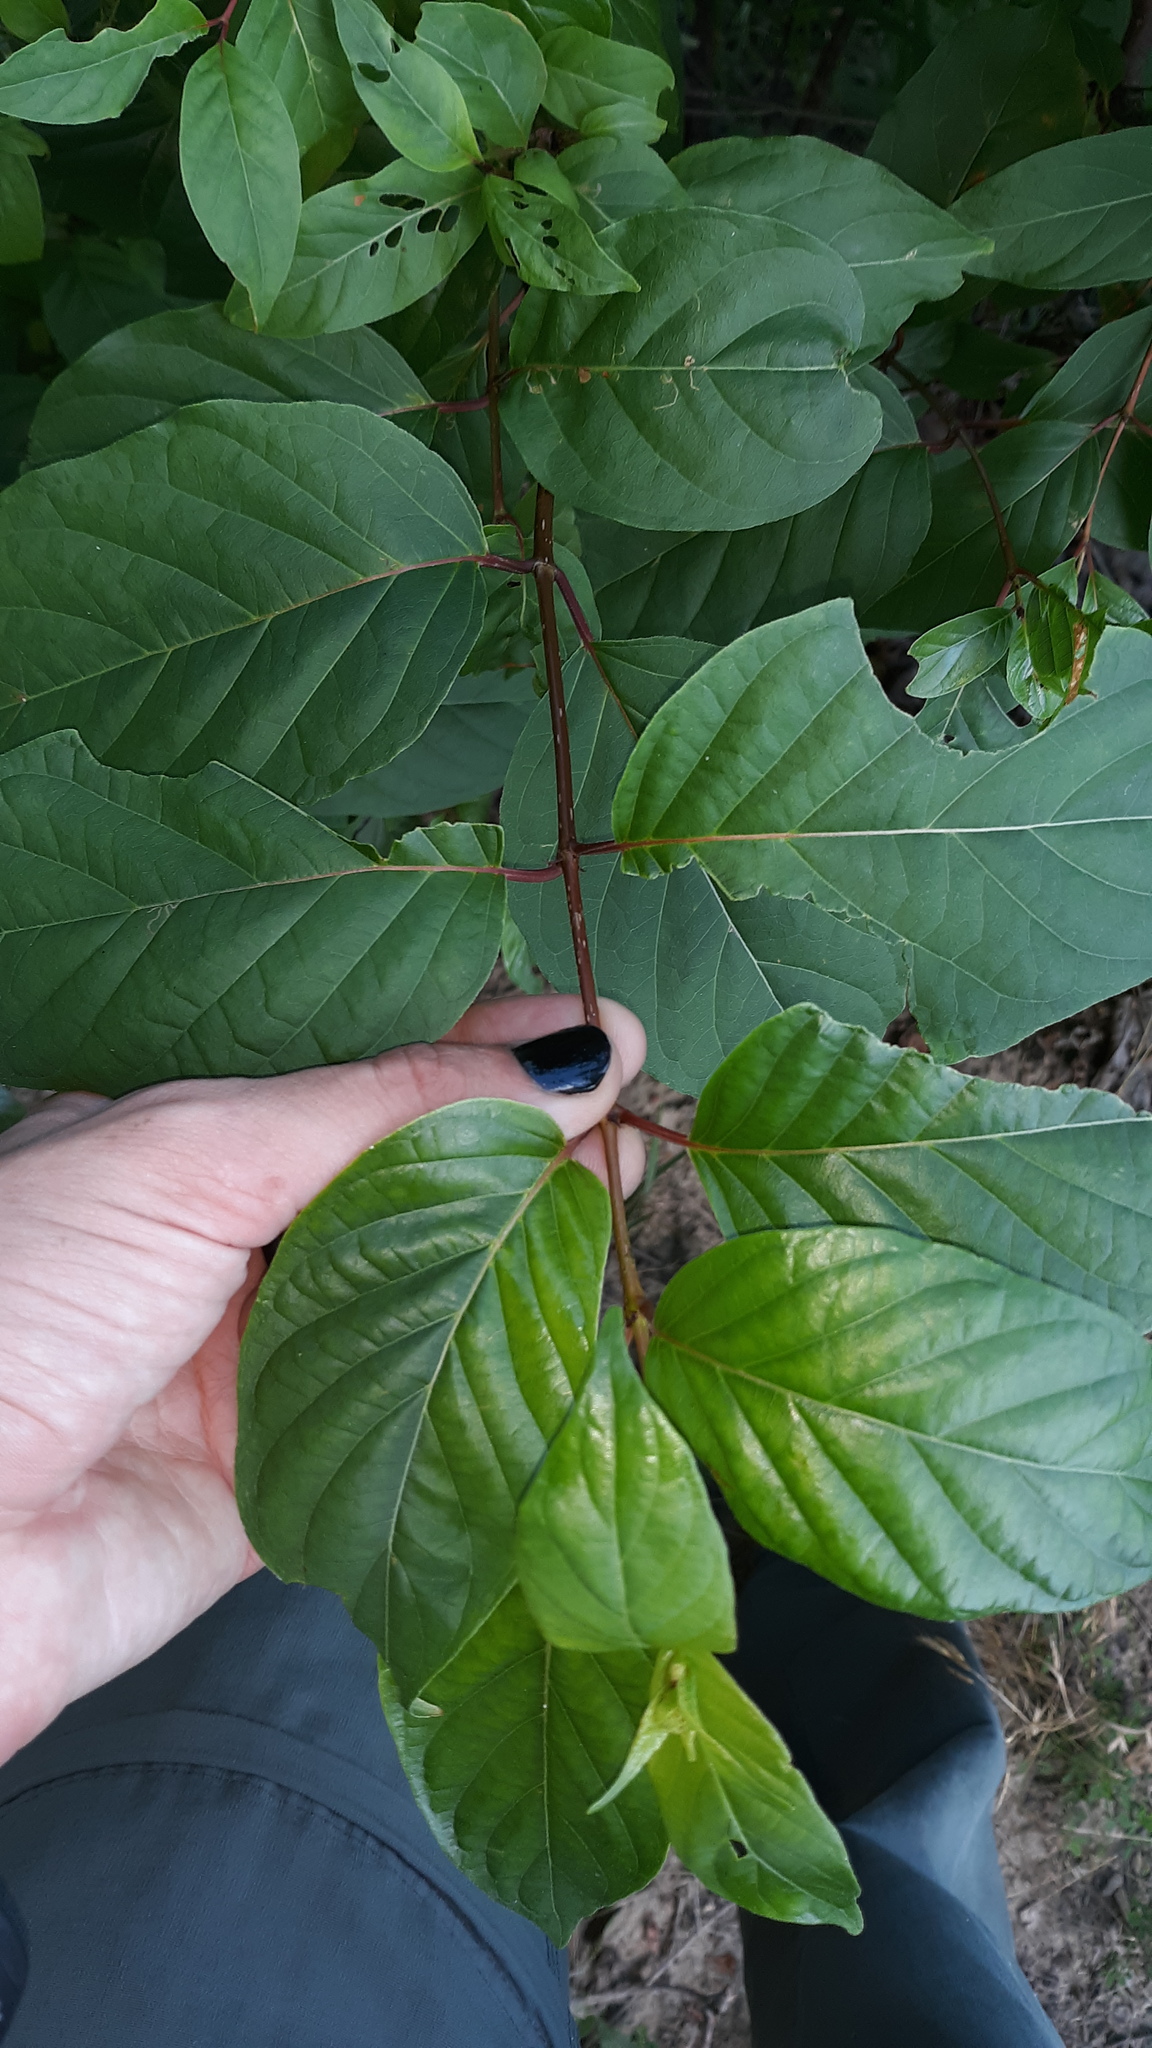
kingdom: Plantae
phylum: Tracheophyta
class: Magnoliopsida
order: Gentianales
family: Rubiaceae
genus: Cephalanthus
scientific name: Cephalanthus occidentalis
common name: Button-willow
